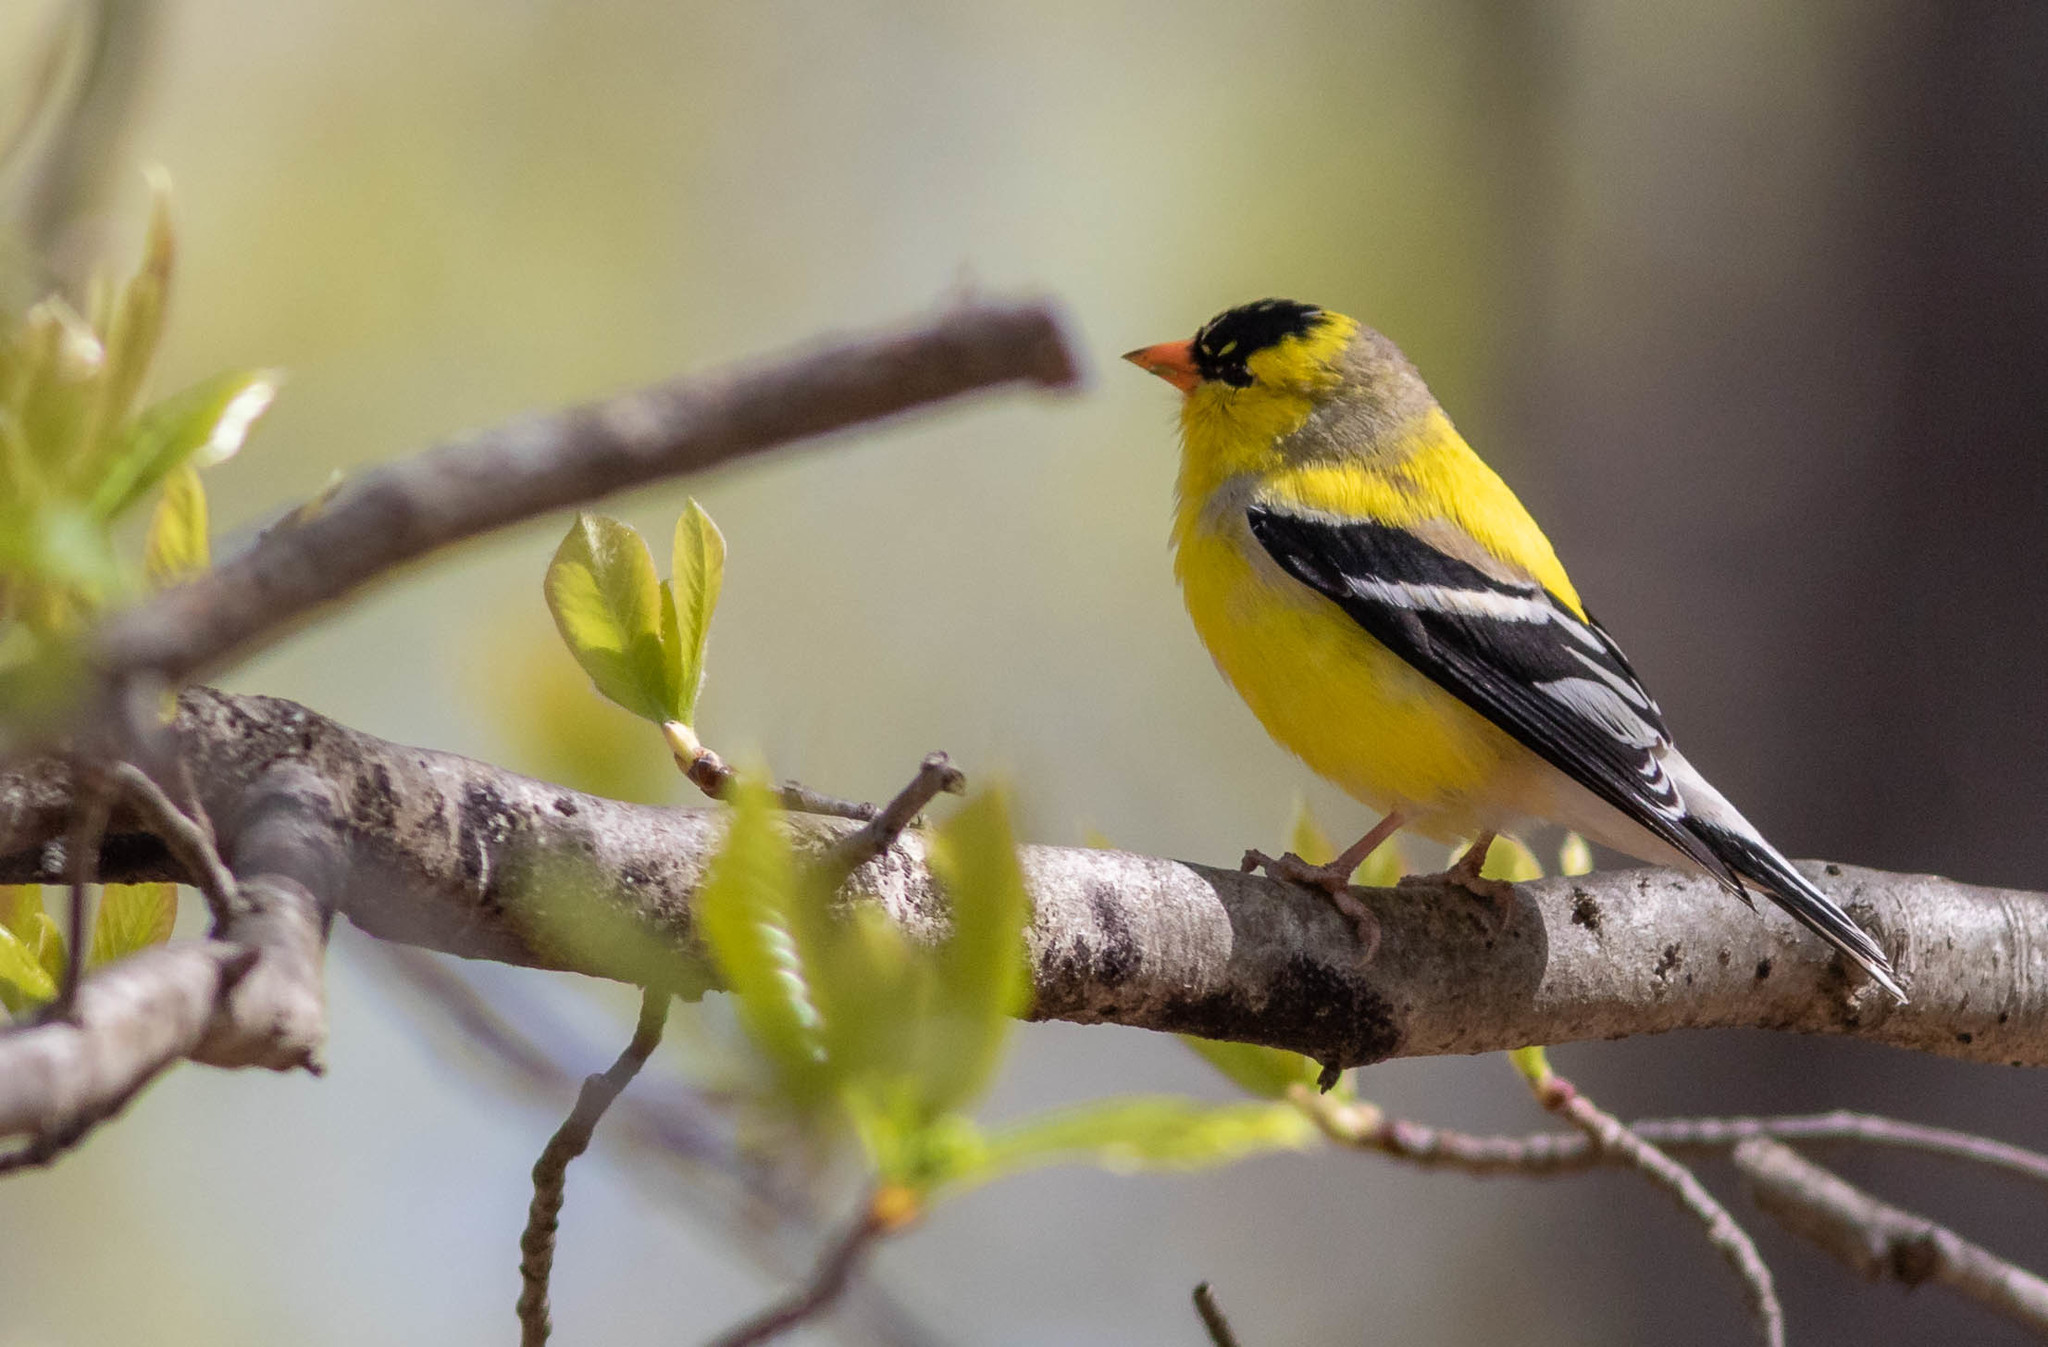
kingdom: Animalia
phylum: Chordata
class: Aves
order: Passeriformes
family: Fringillidae
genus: Spinus
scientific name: Spinus tristis
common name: American goldfinch
